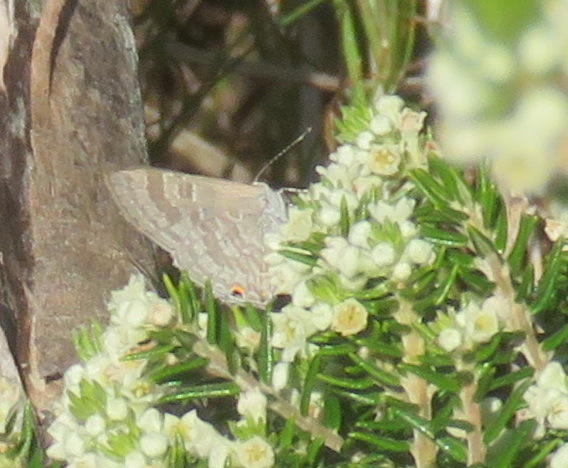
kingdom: Animalia
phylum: Arthropoda
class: Insecta
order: Lepidoptera
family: Lycaenidae
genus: Anthene
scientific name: Anthene definita
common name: Common ciliate blue
